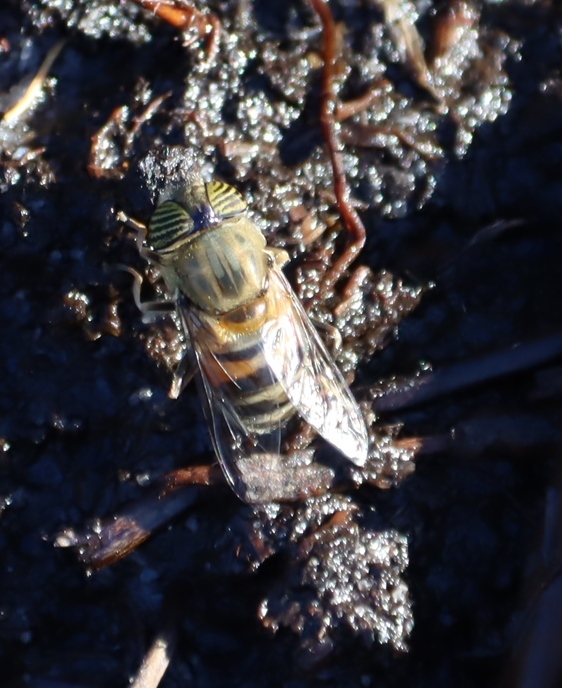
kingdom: Animalia
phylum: Arthropoda
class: Insecta
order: Diptera
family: Syrphidae
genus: Eristalinus
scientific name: Eristalinus taeniops
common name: Syrphid fly
